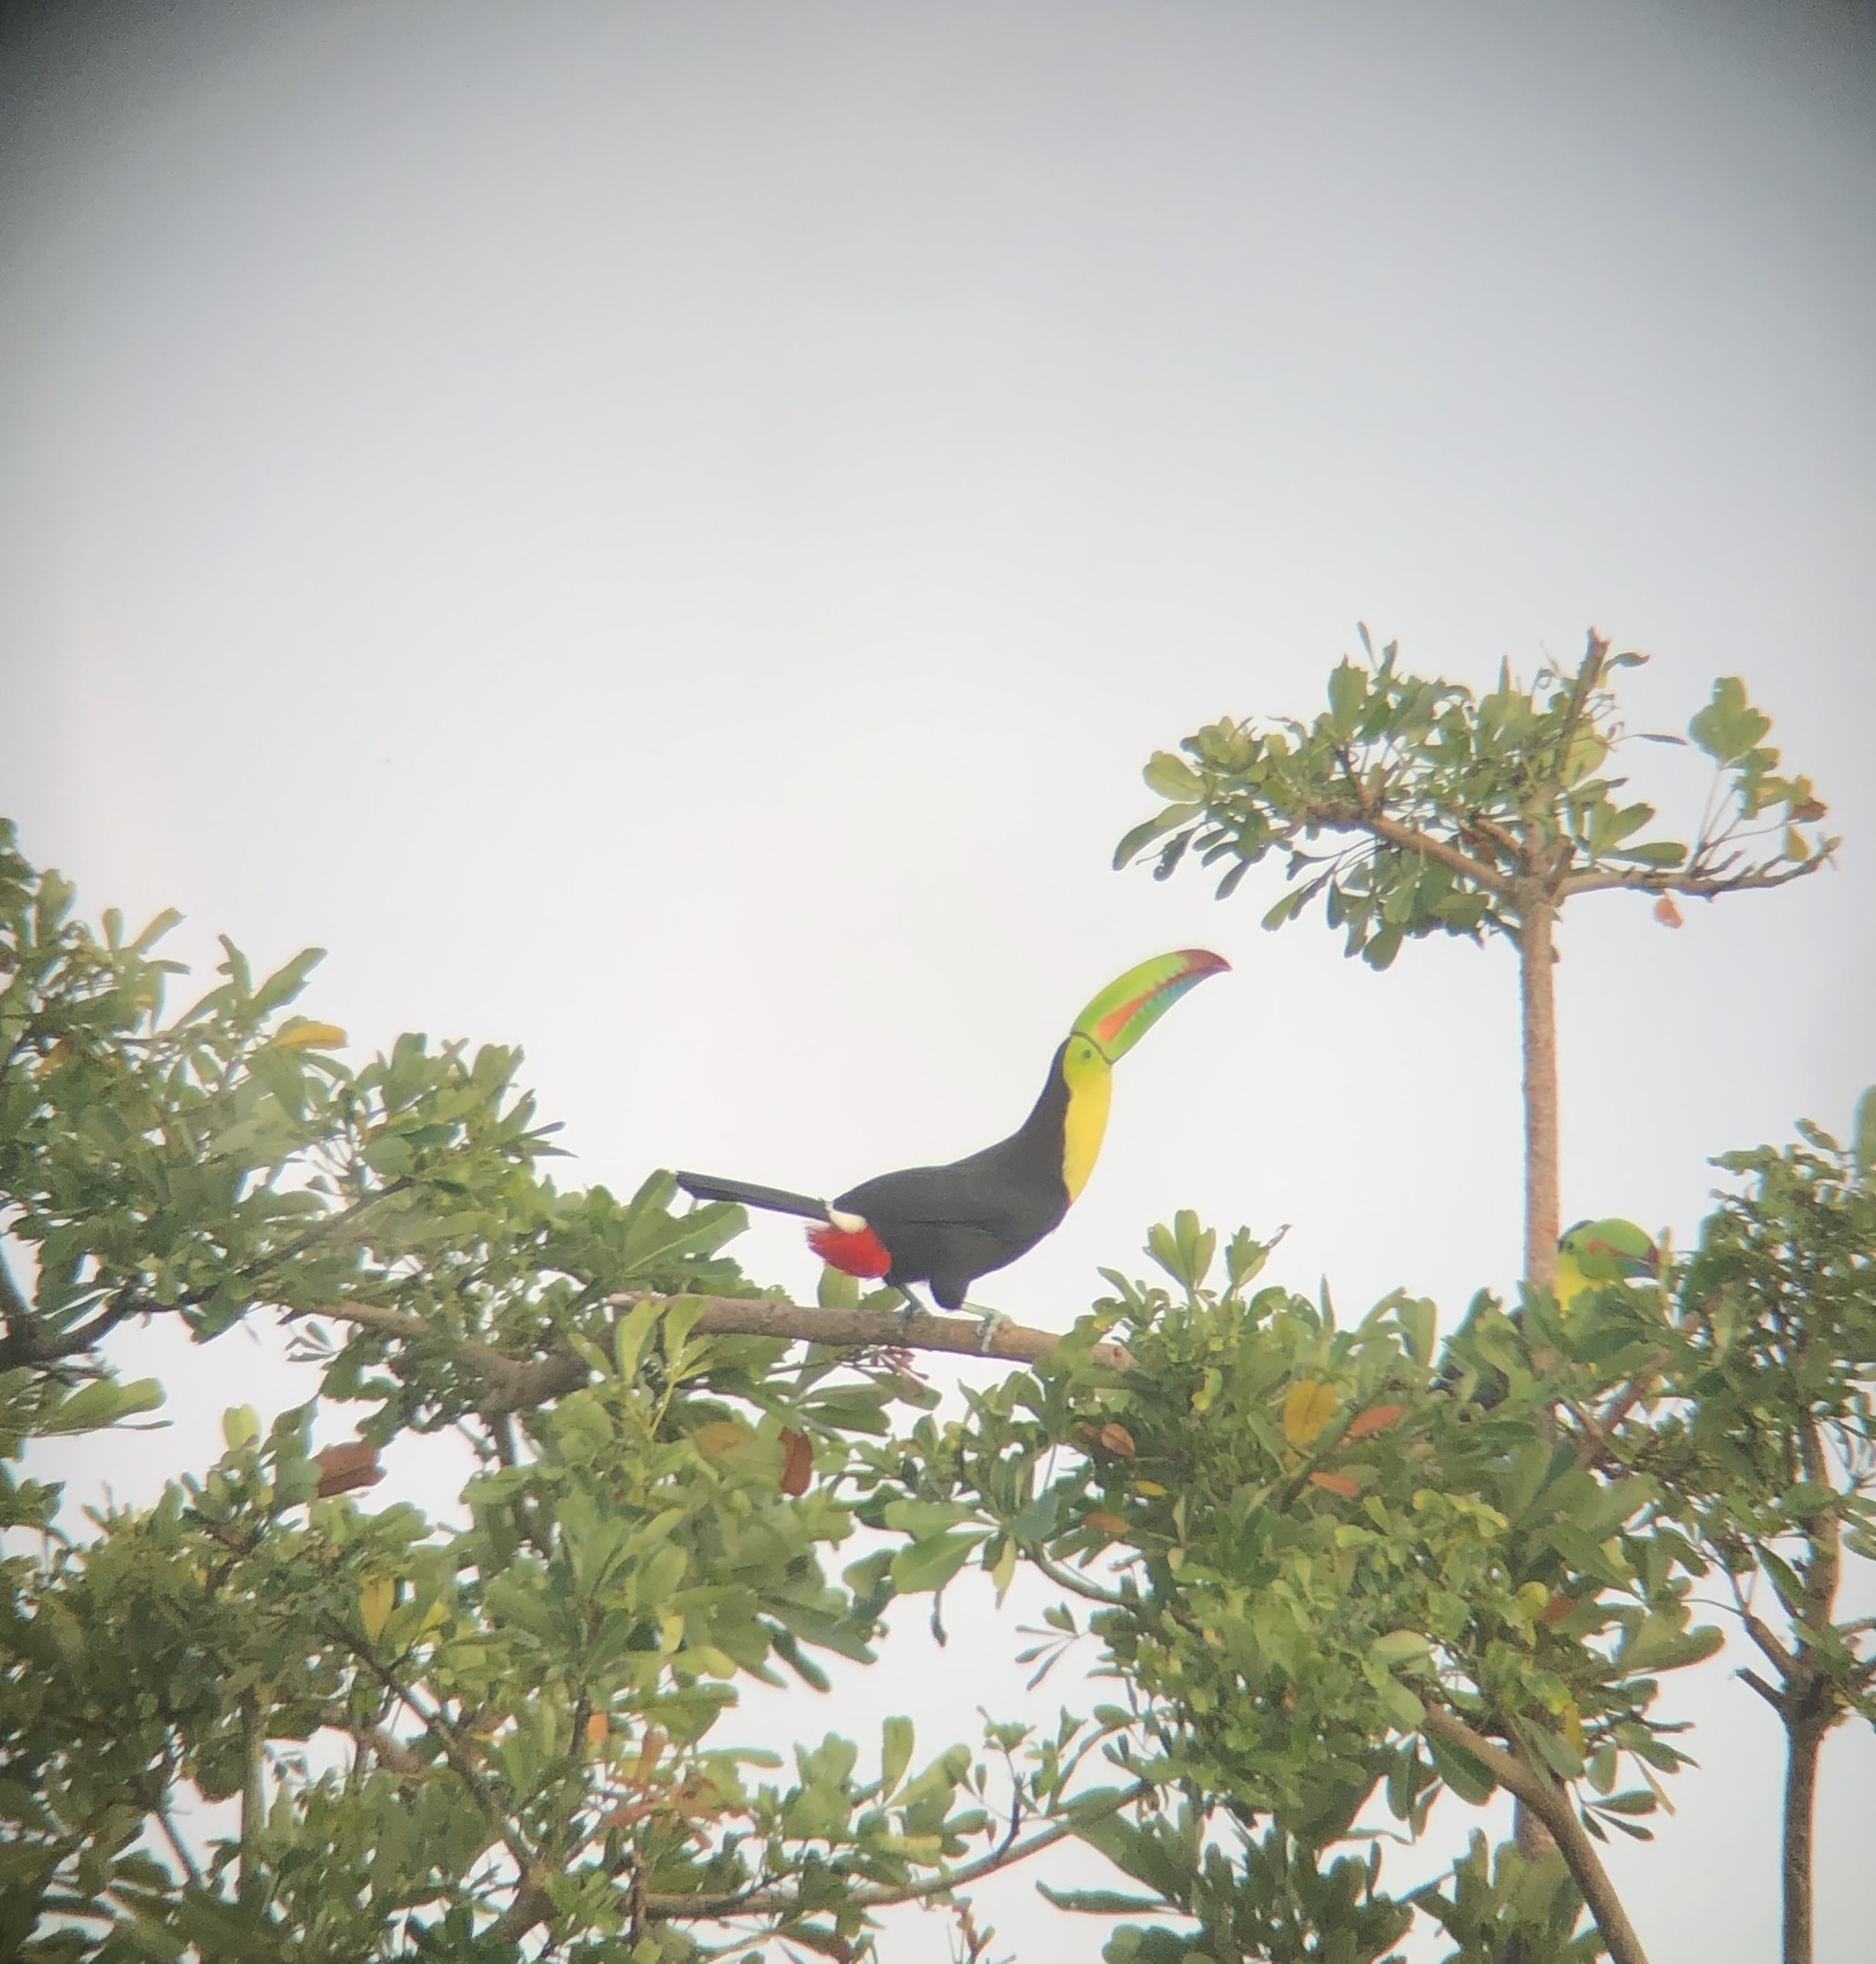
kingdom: Animalia
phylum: Chordata
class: Aves
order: Piciformes
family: Ramphastidae
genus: Ramphastos
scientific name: Ramphastos sulfuratus
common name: Keel-billed toucan
